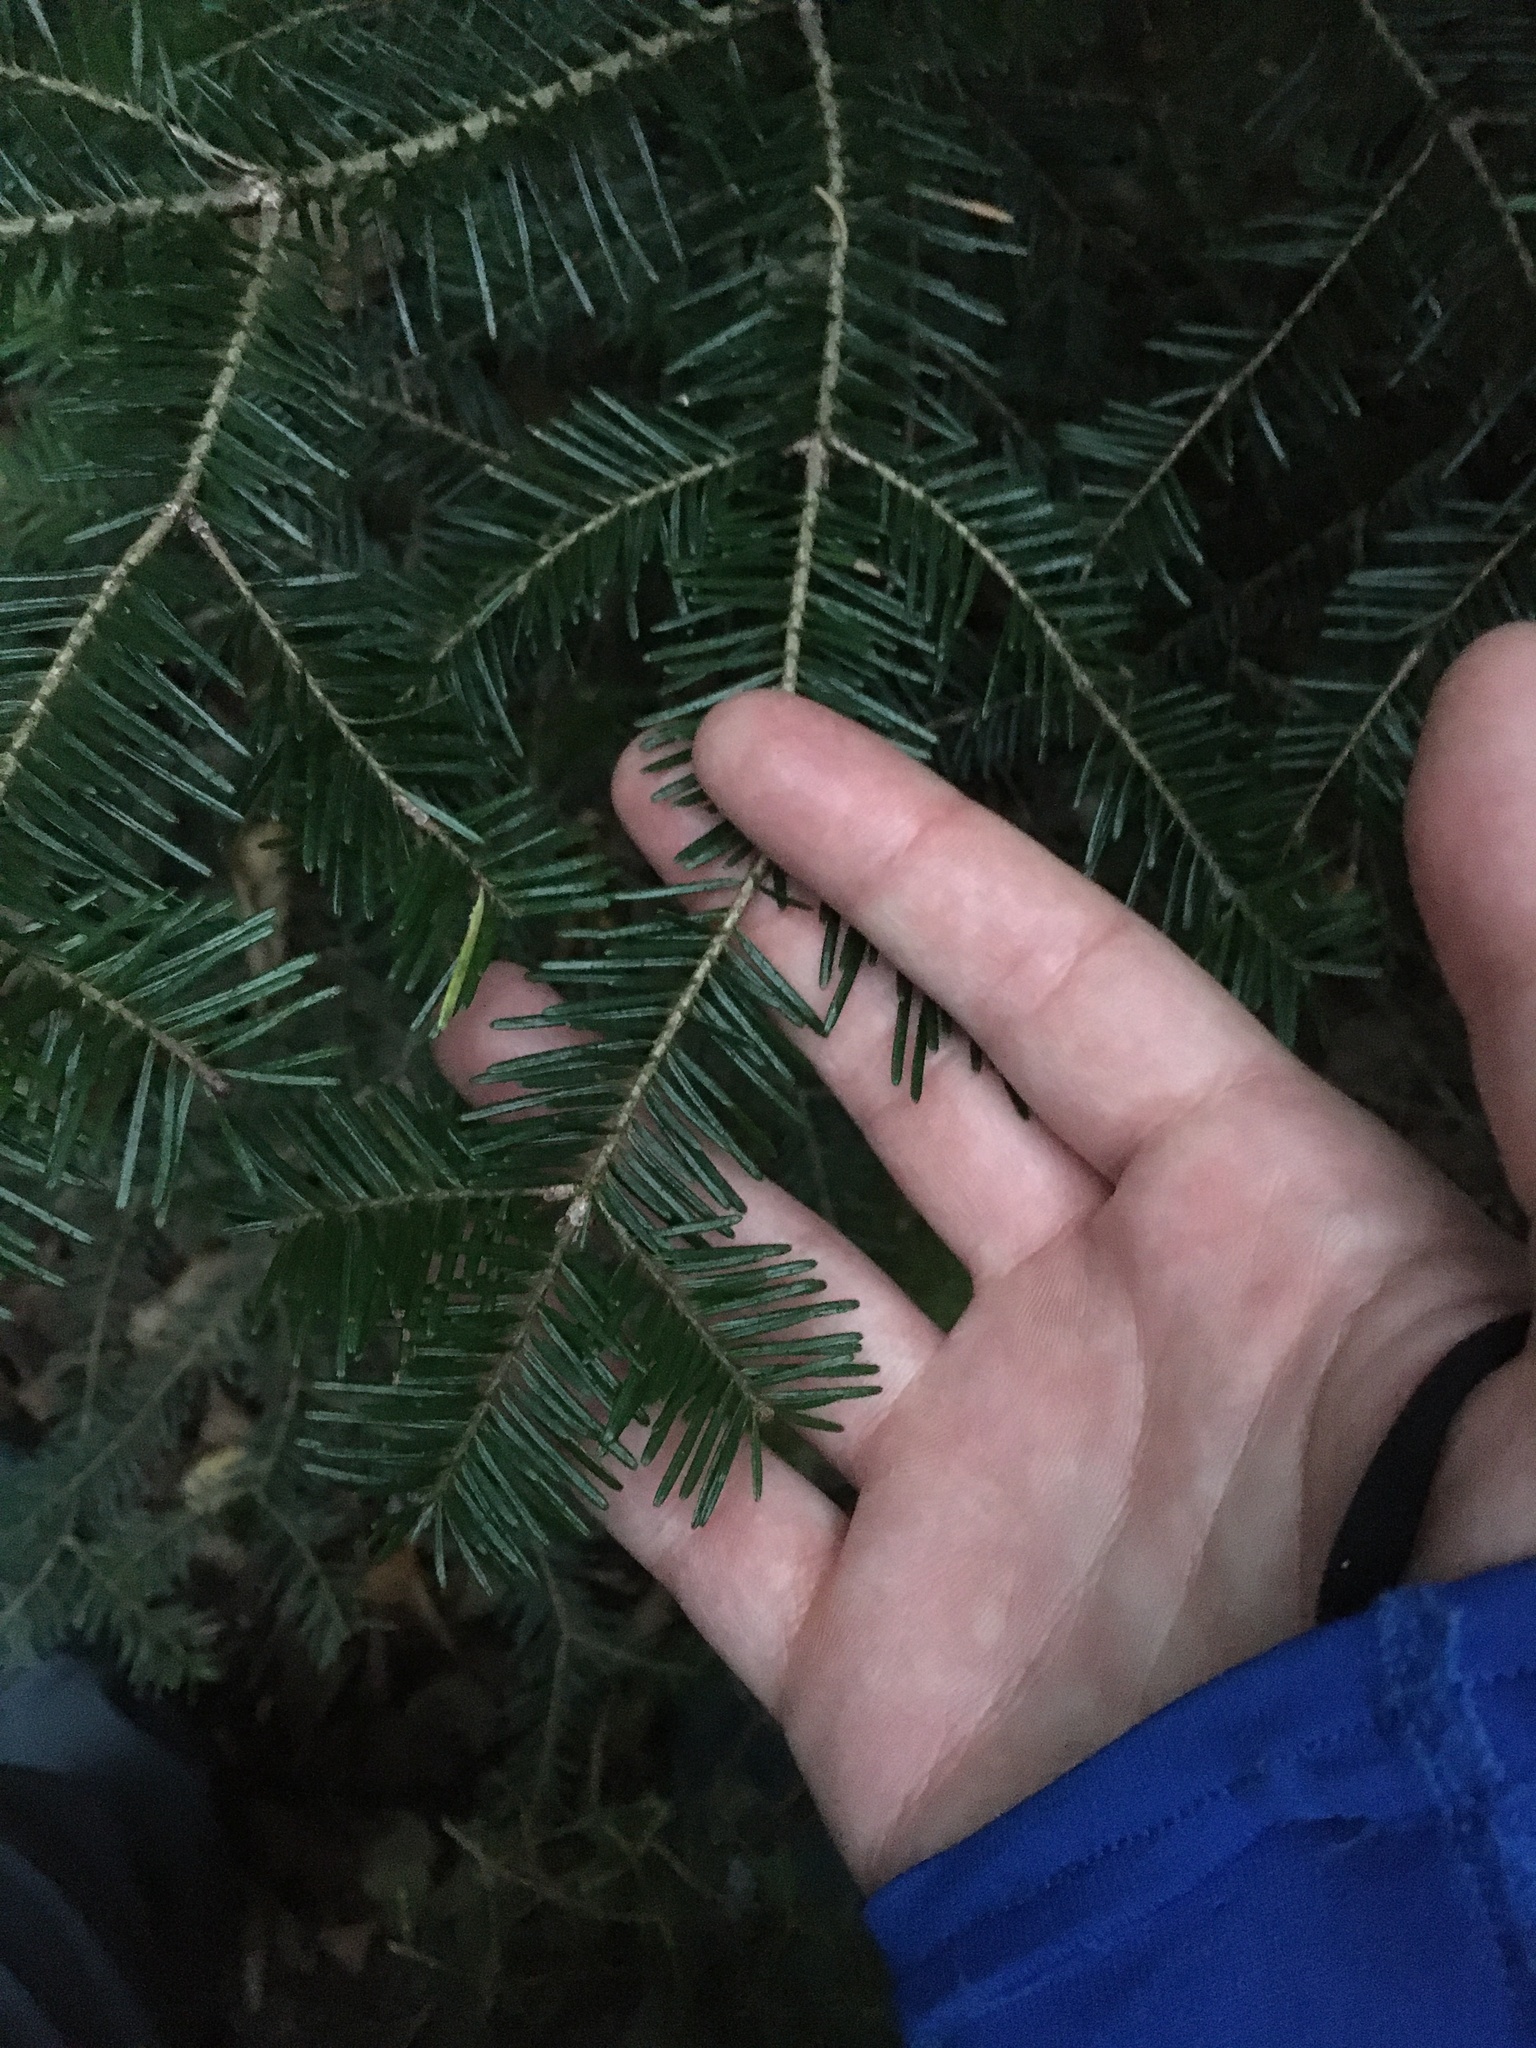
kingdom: Plantae
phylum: Tracheophyta
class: Pinopsida
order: Pinales
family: Pinaceae
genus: Abies
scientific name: Abies balsamea
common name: Balsam fir
